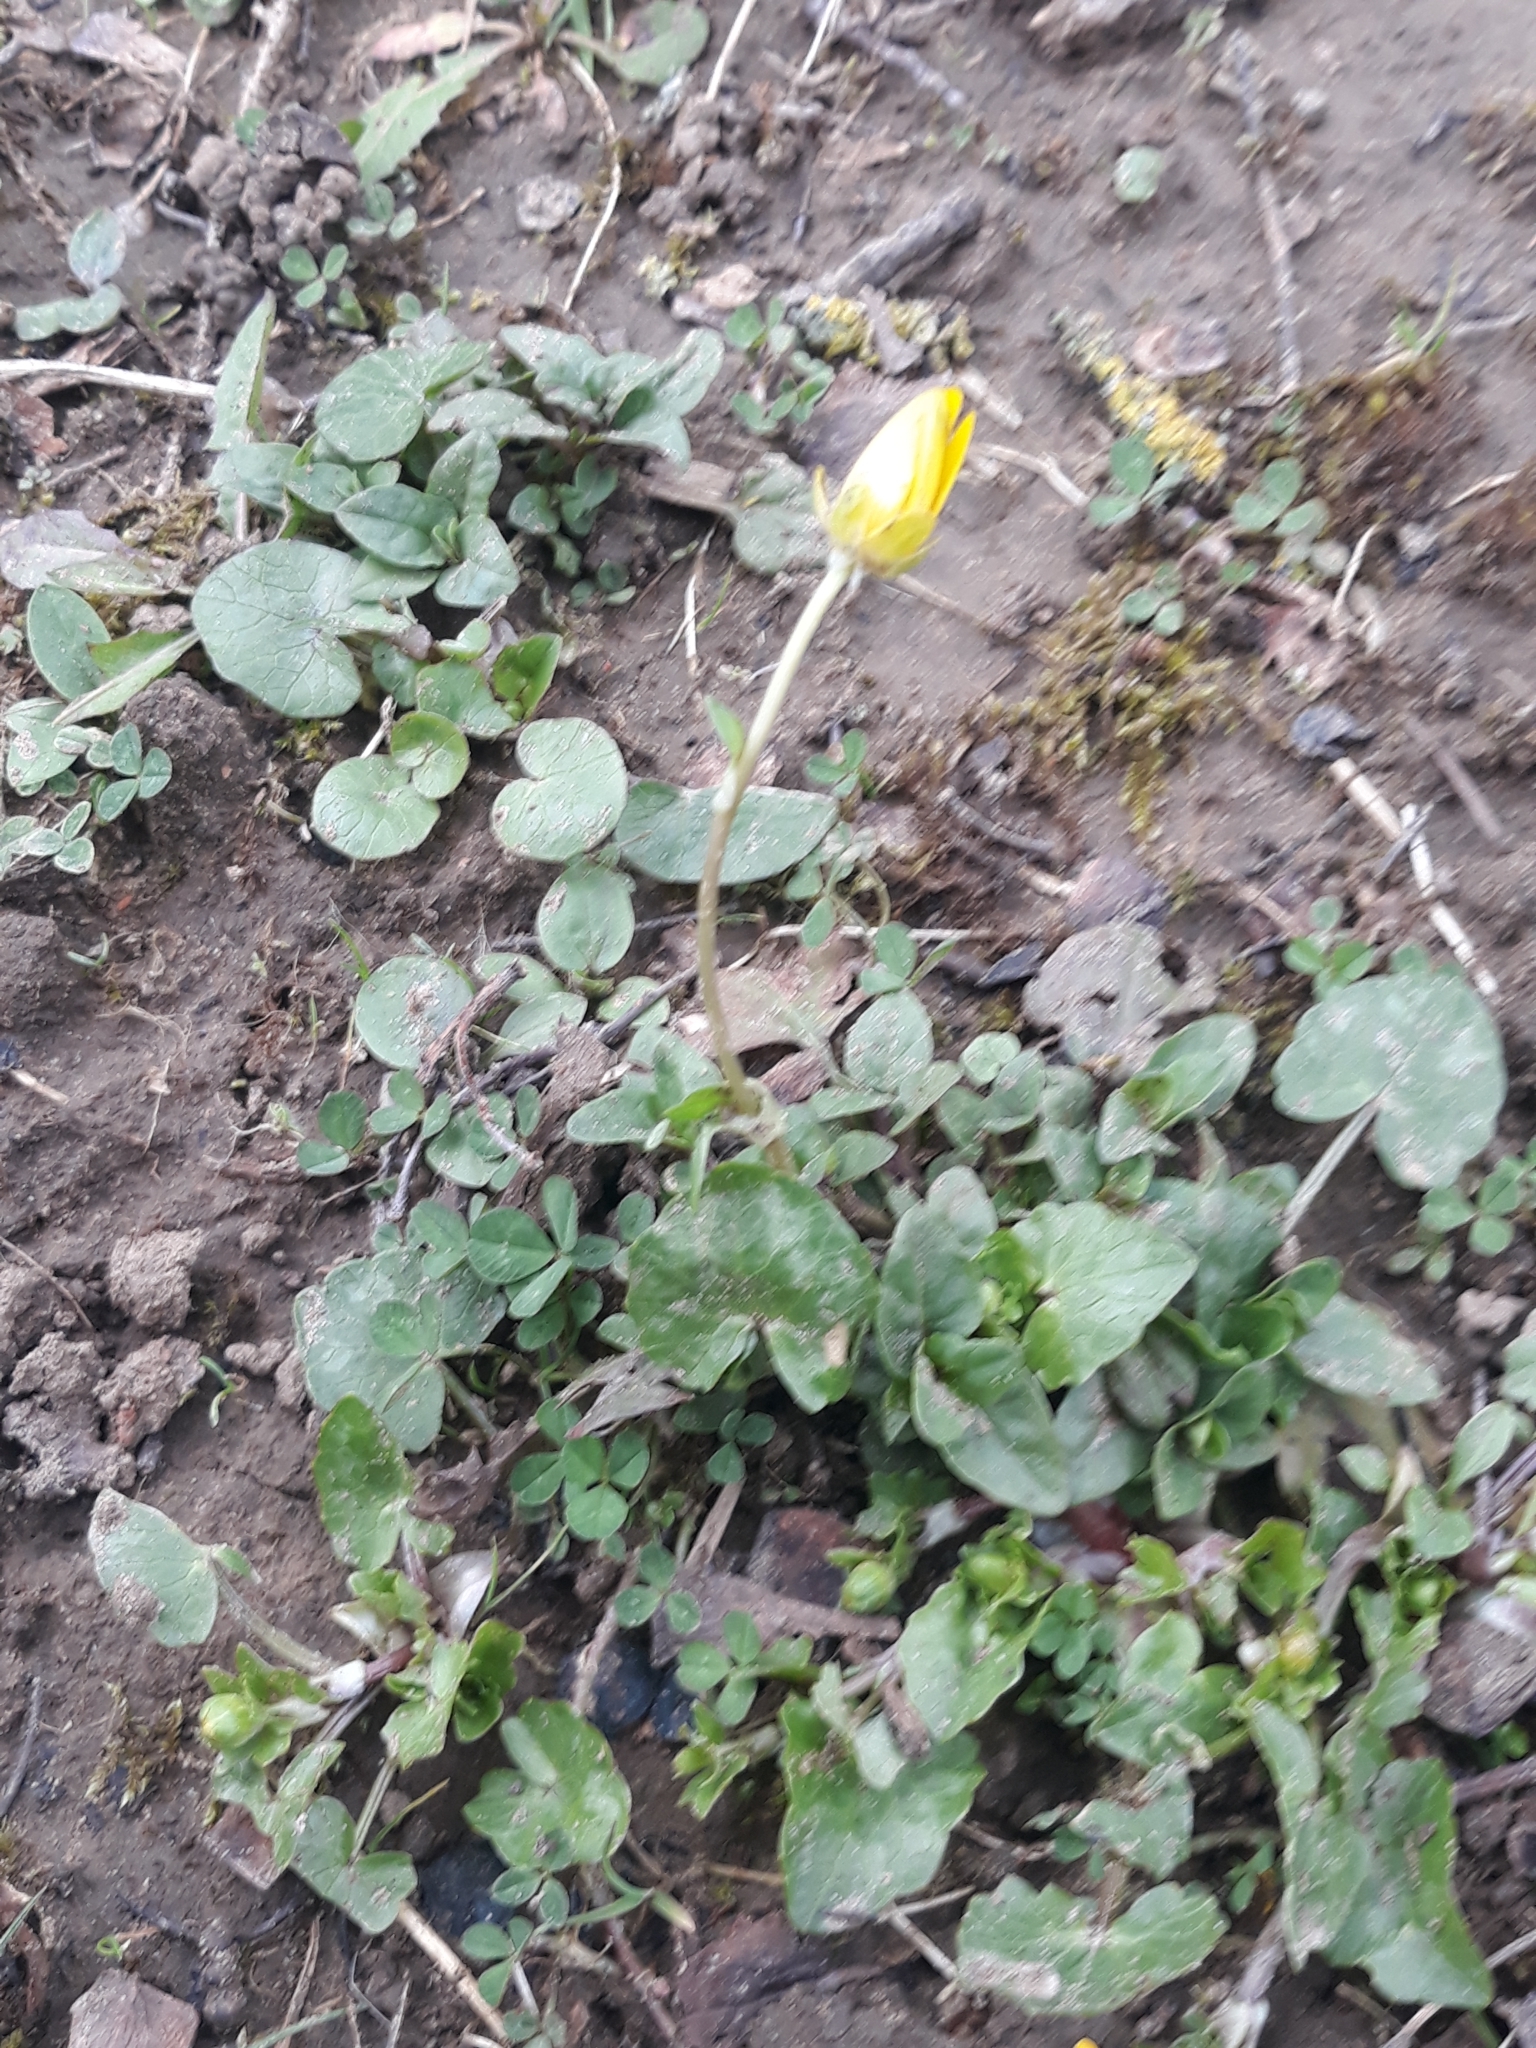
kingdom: Plantae
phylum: Tracheophyta
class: Magnoliopsida
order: Ranunculales
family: Ranunculaceae
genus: Ficaria
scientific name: Ficaria verna
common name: Lesser celandine
